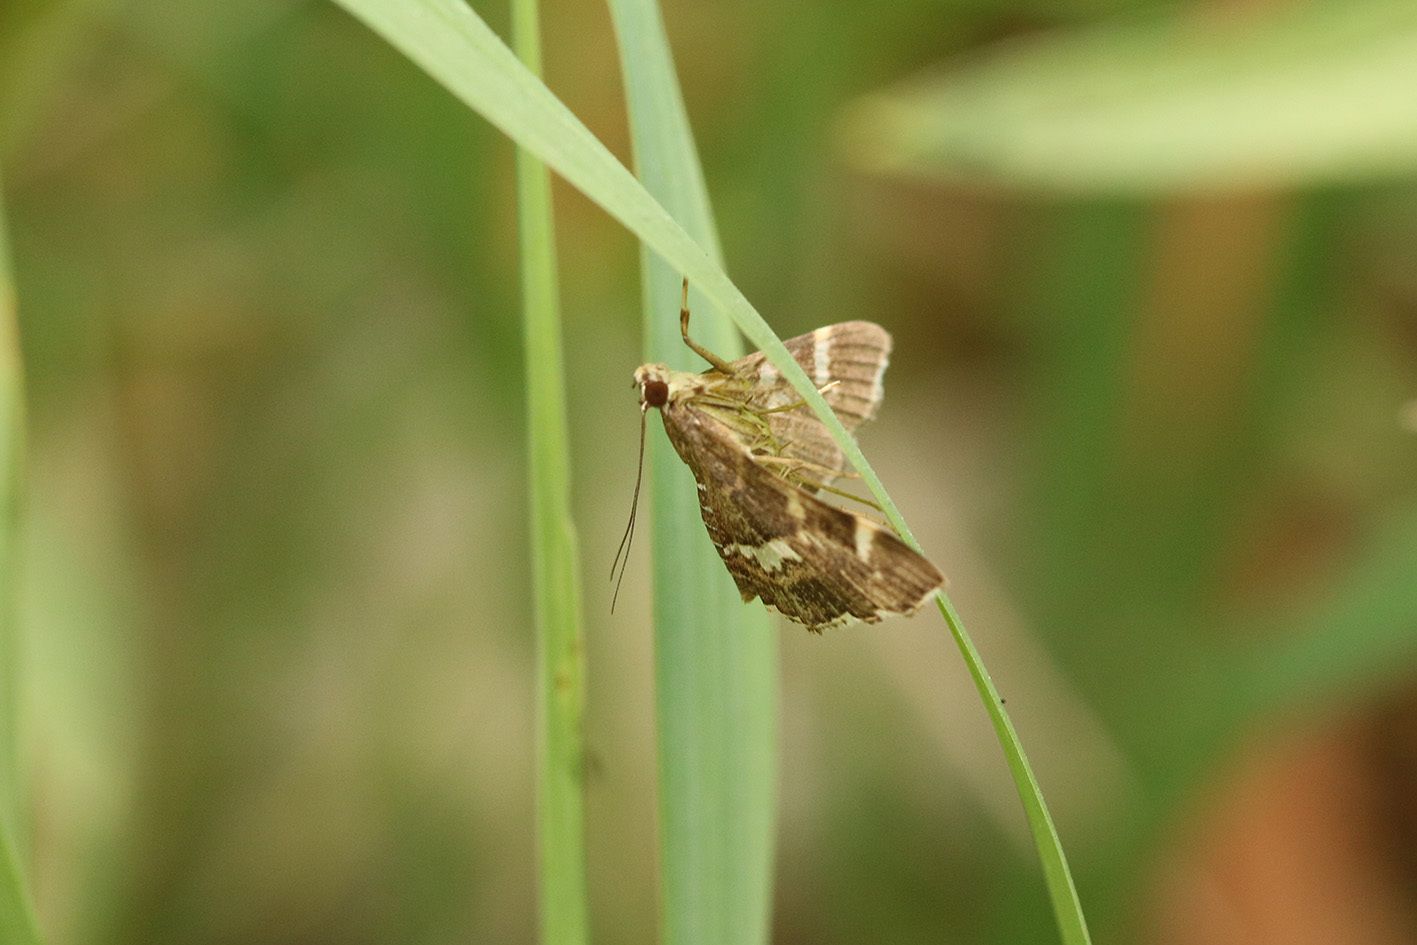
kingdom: Animalia
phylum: Arthropoda
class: Insecta
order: Lepidoptera
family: Crambidae
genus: Hymenia
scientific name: Hymenia perspectalis
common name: Spotted beet webworm
